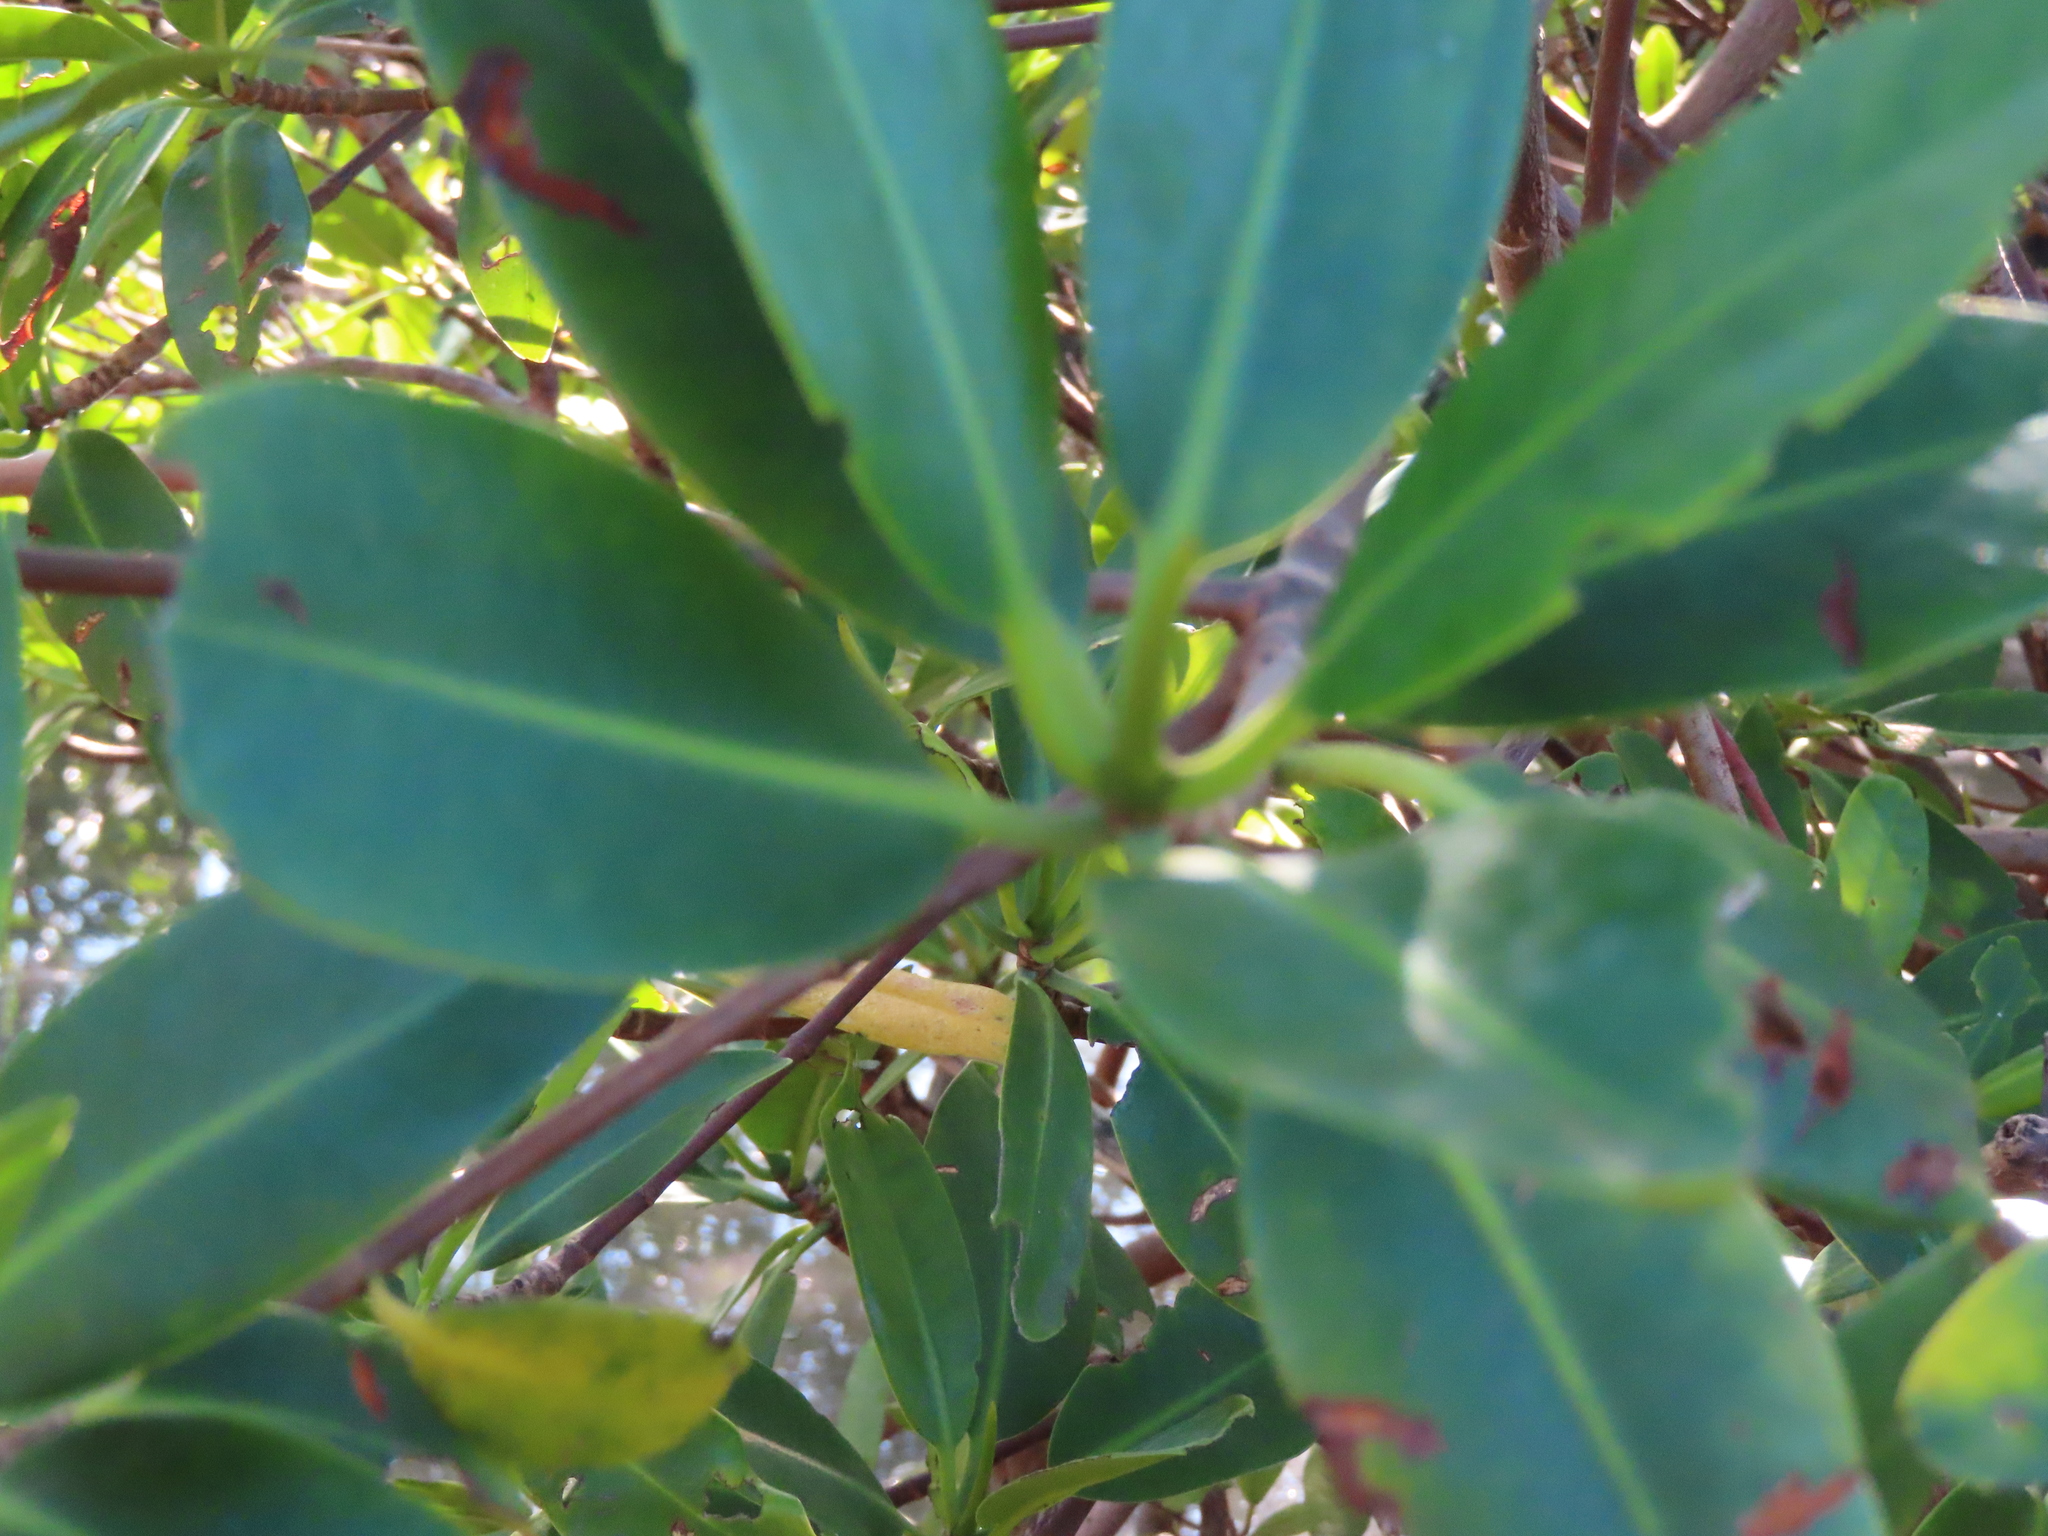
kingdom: Plantae
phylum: Tracheophyta
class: Magnoliopsida
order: Malpighiales
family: Rhizophoraceae
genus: Rhizophora
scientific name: Rhizophora mangle
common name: Red mangrove
